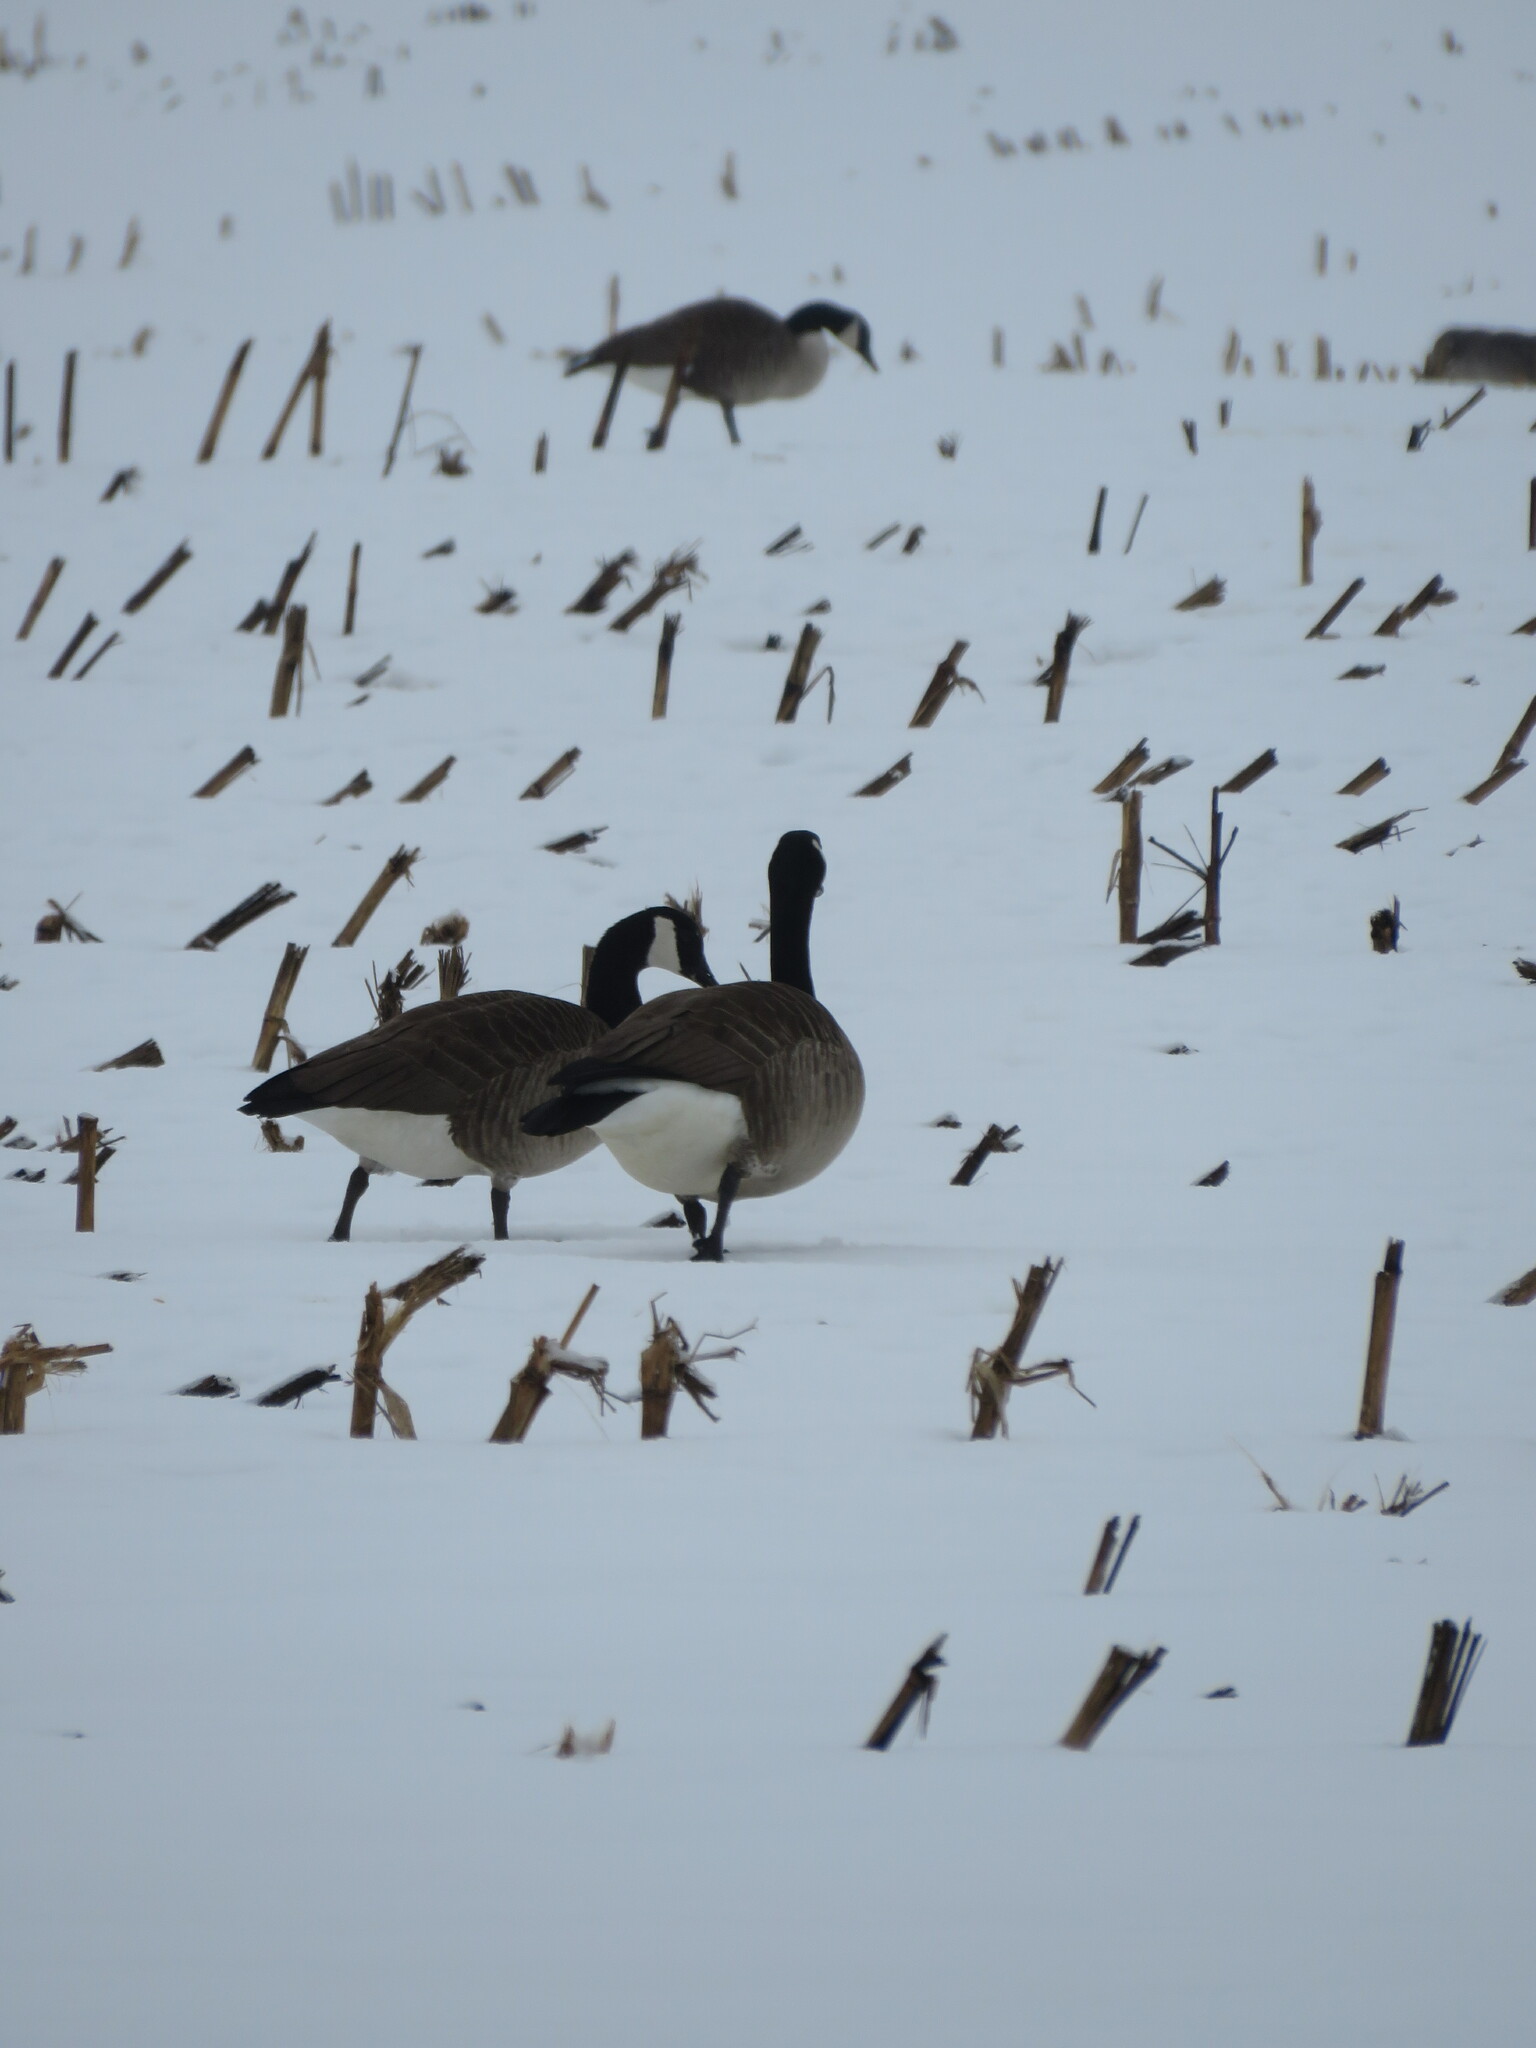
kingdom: Animalia
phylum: Chordata
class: Aves
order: Anseriformes
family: Anatidae
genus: Branta
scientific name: Branta canadensis
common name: Canada goose
